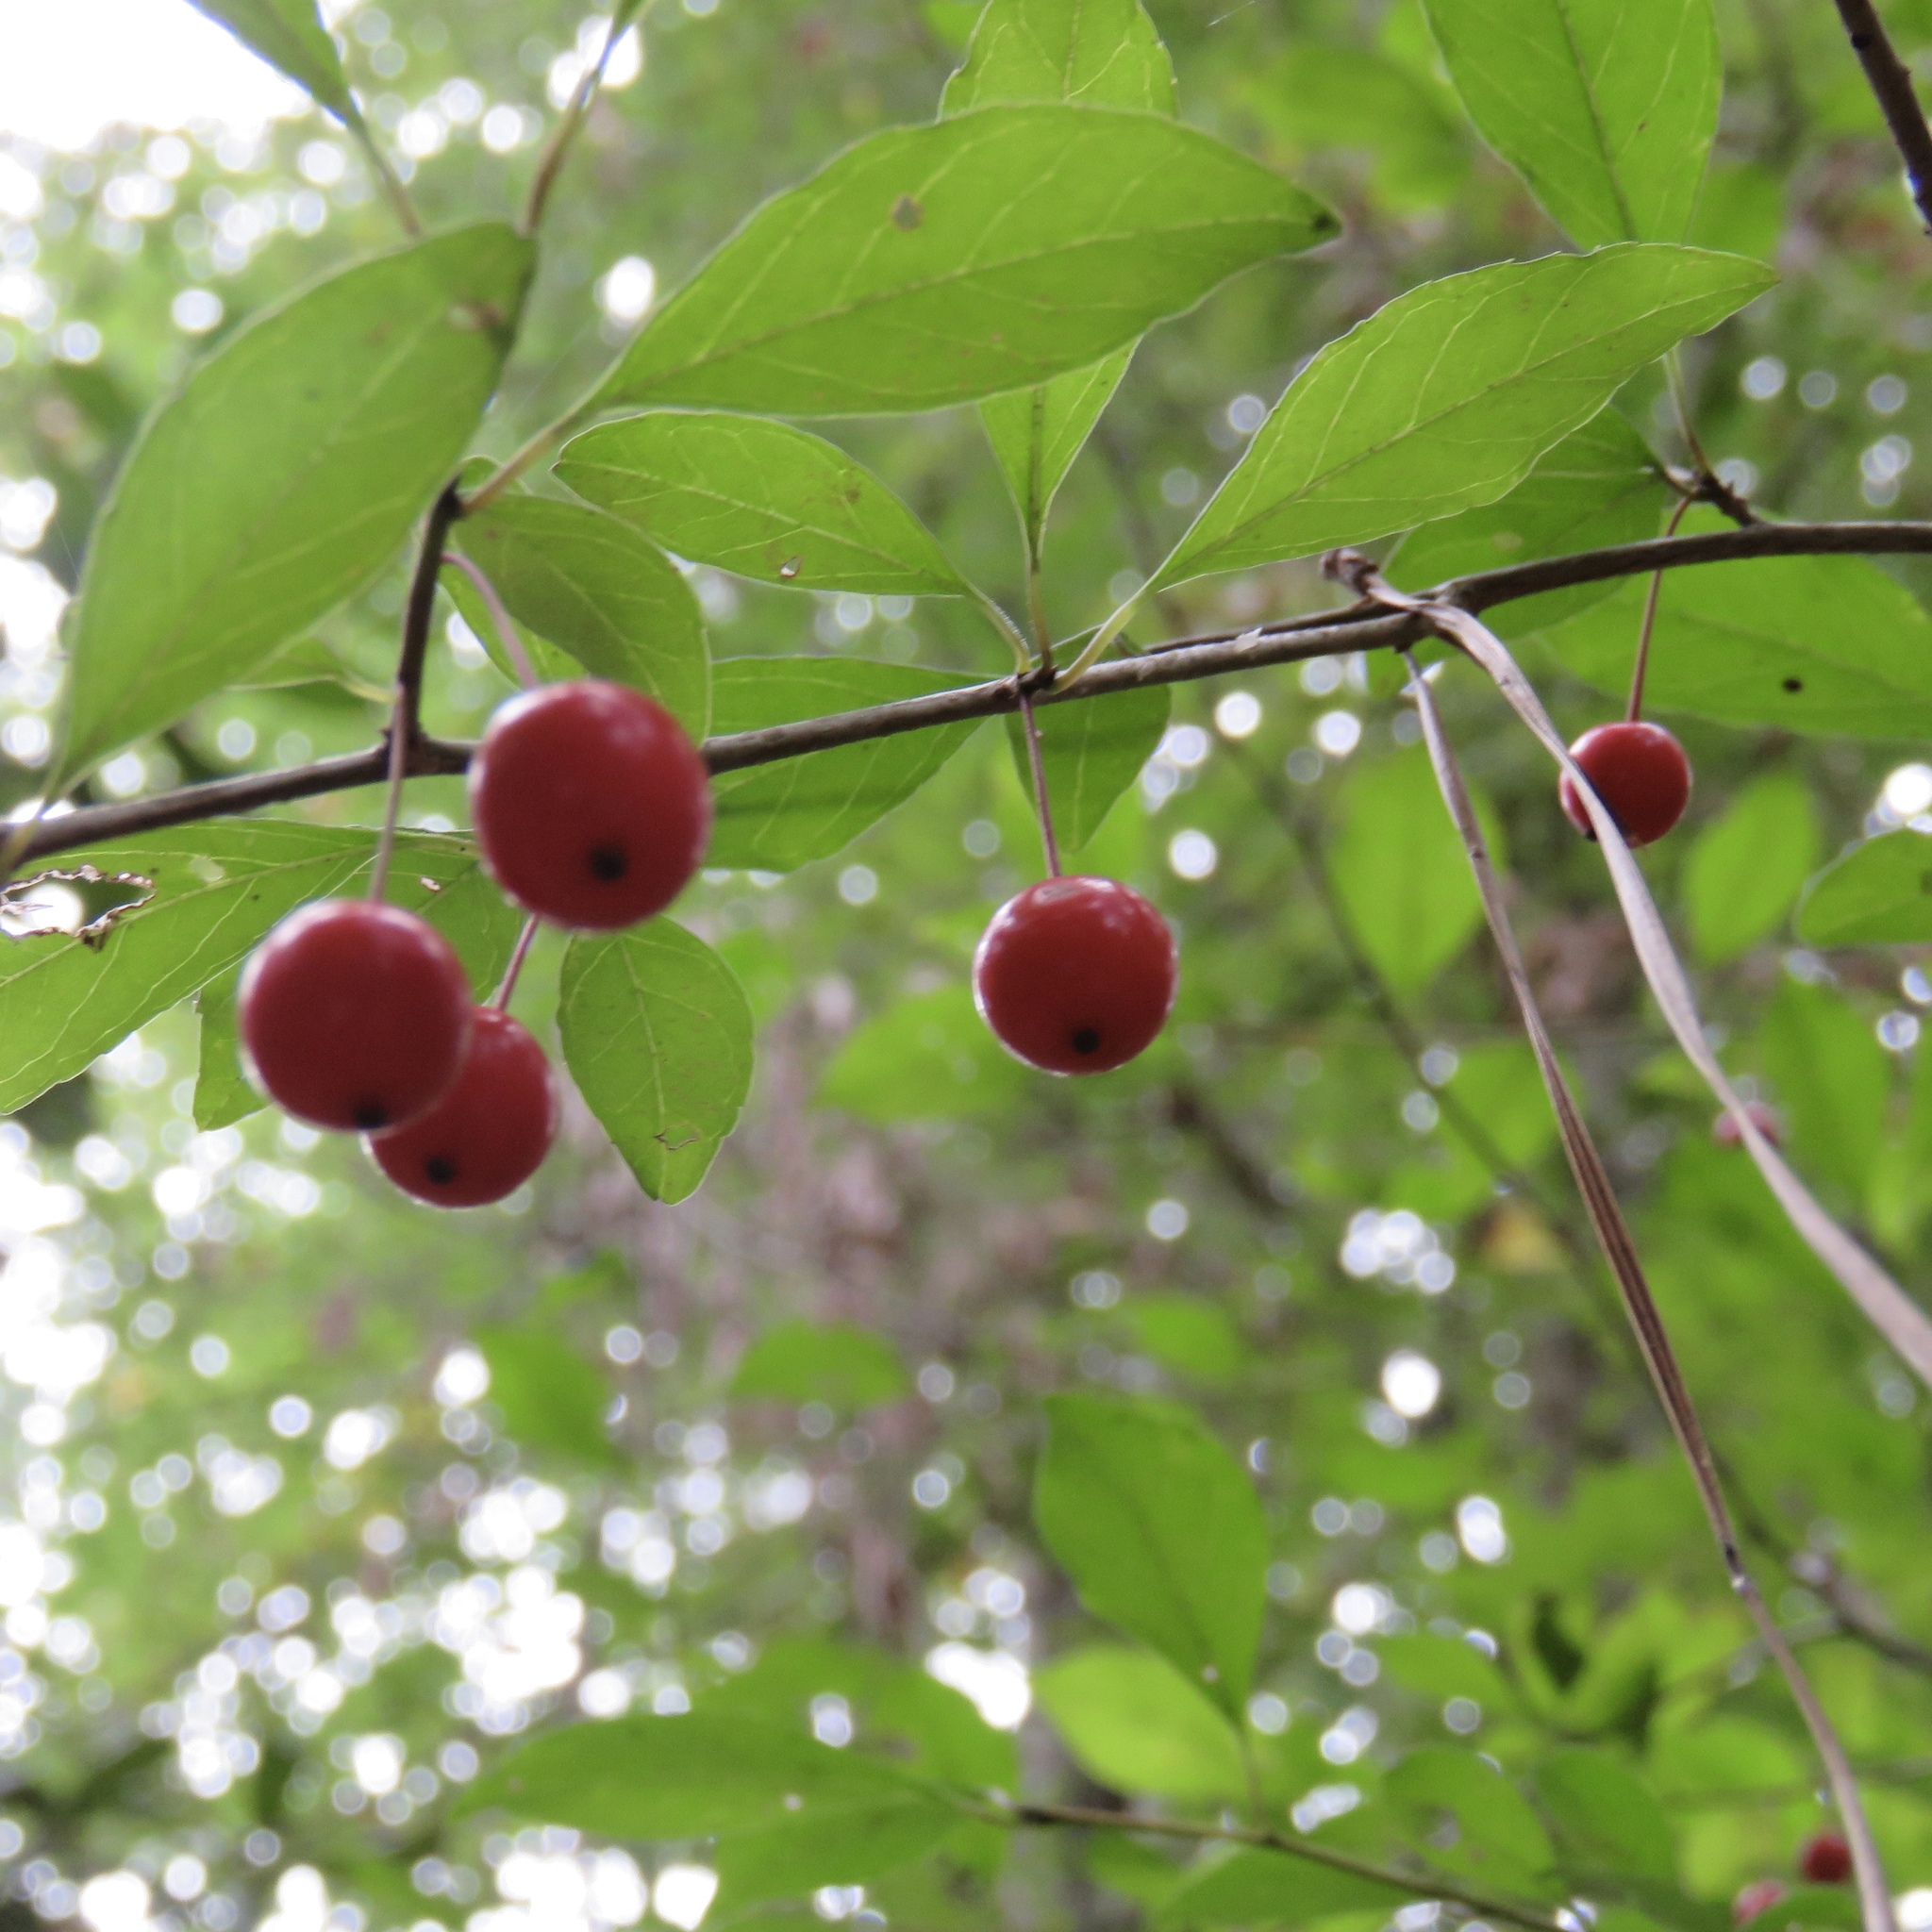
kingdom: Plantae
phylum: Tracheophyta
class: Magnoliopsida
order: Aquifoliales
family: Aquifoliaceae
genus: Ilex
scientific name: Ilex longipes
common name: Georgia holly
